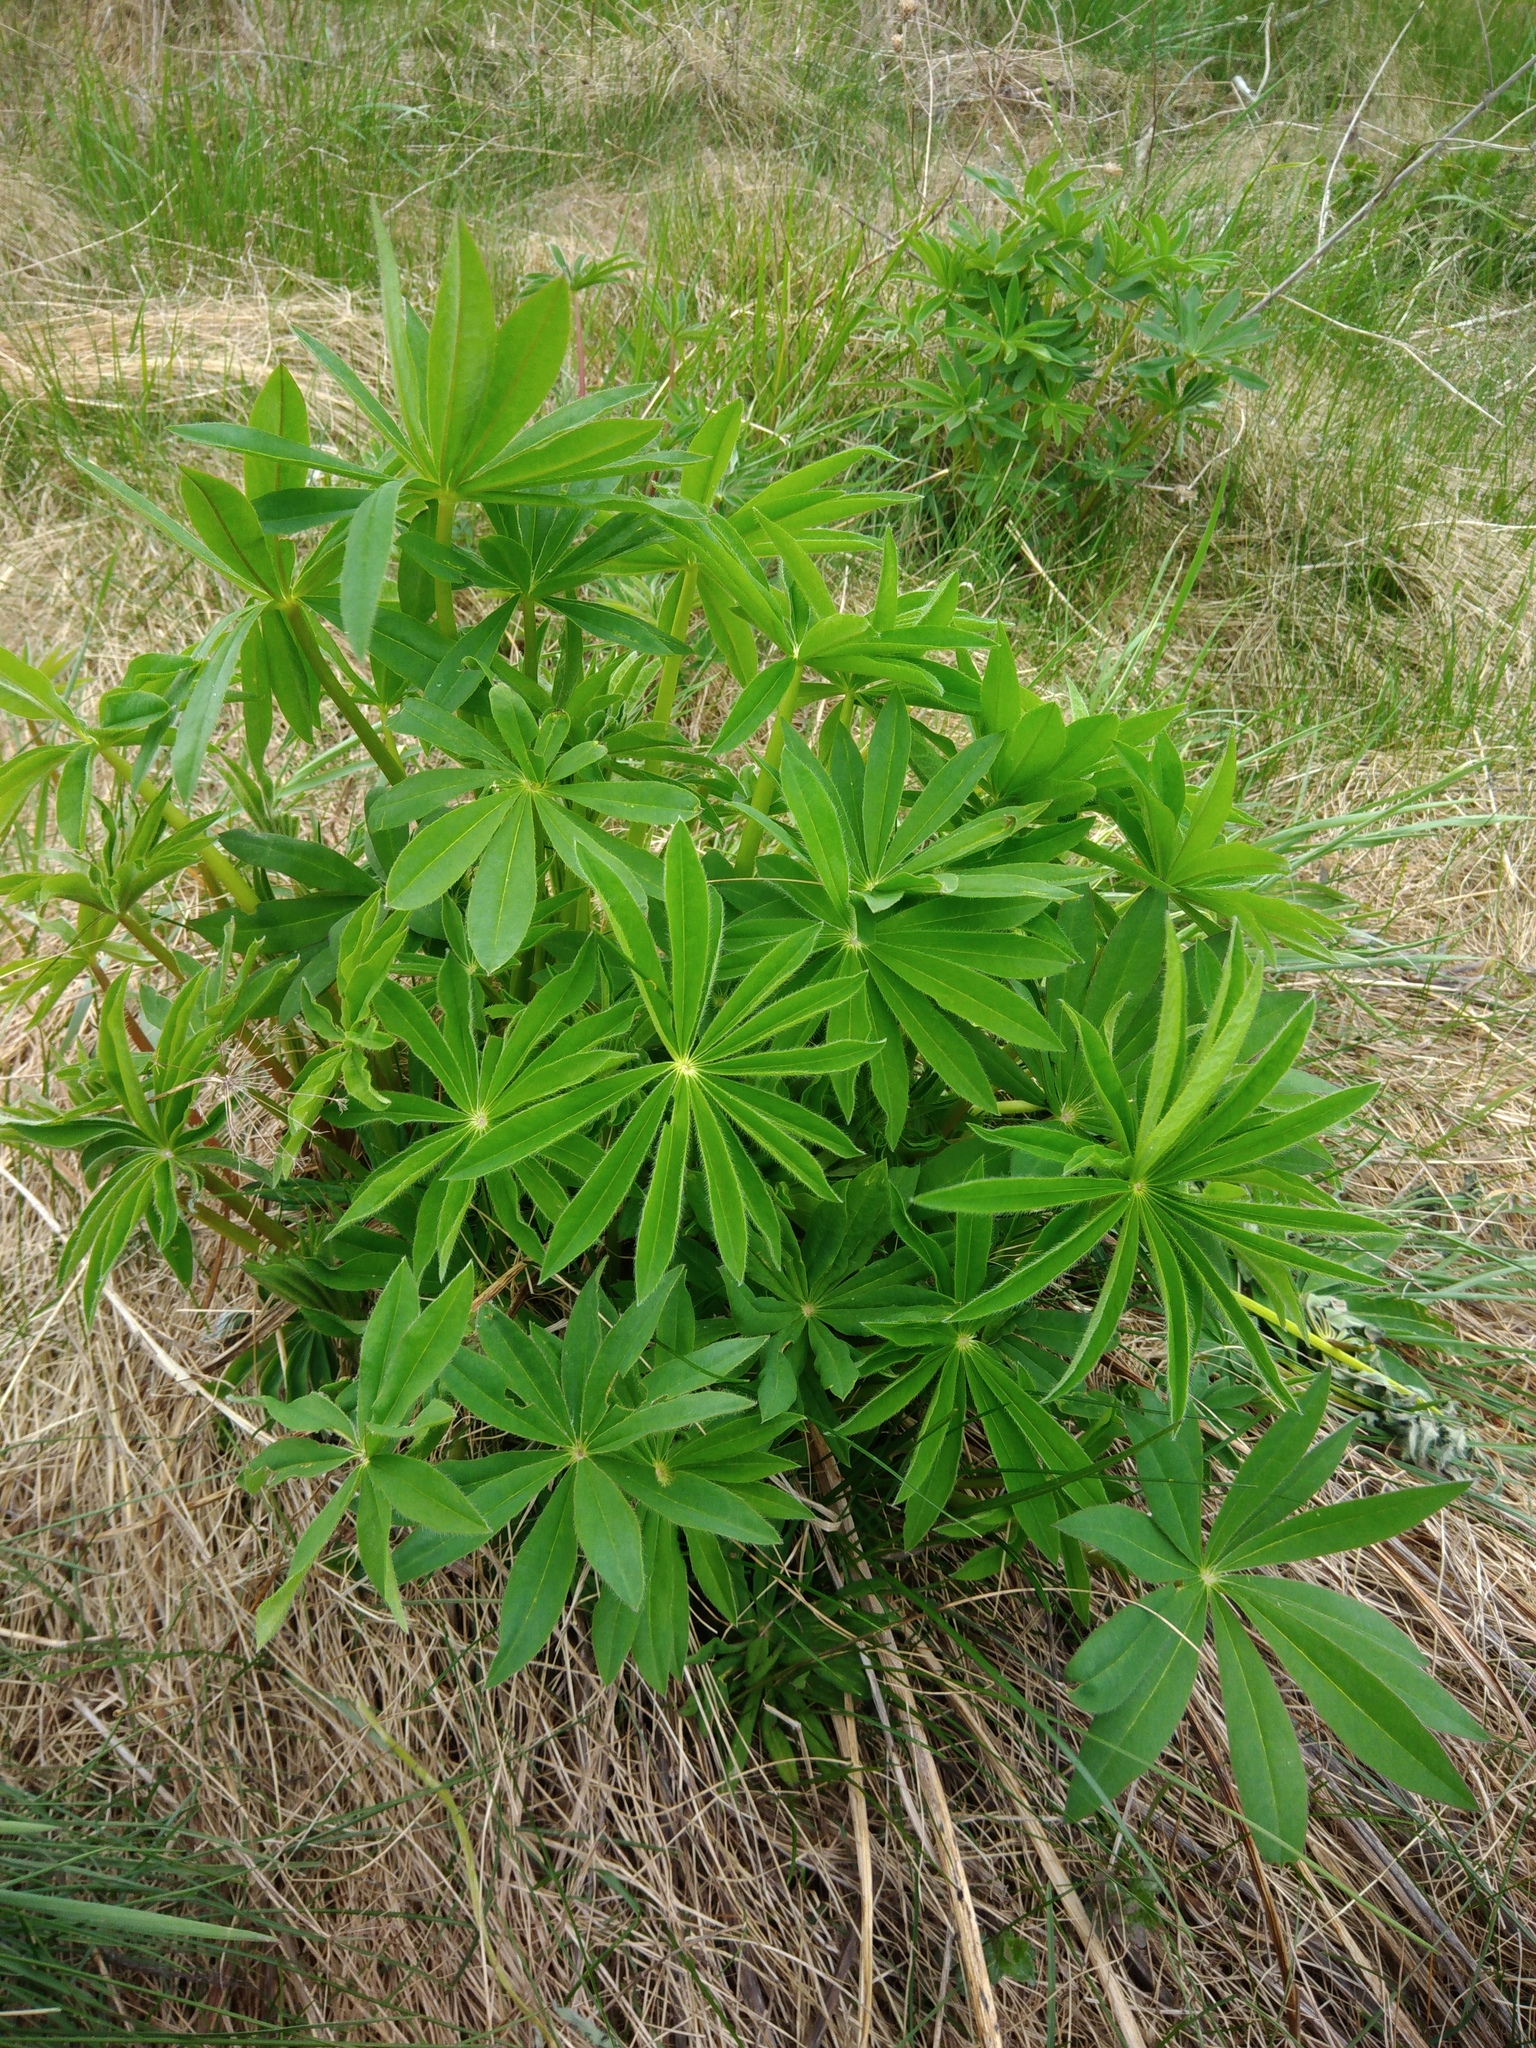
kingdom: Plantae
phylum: Tracheophyta
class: Magnoliopsida
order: Fabales
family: Fabaceae
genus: Lupinus
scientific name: Lupinus polyphyllus
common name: Garden lupin
